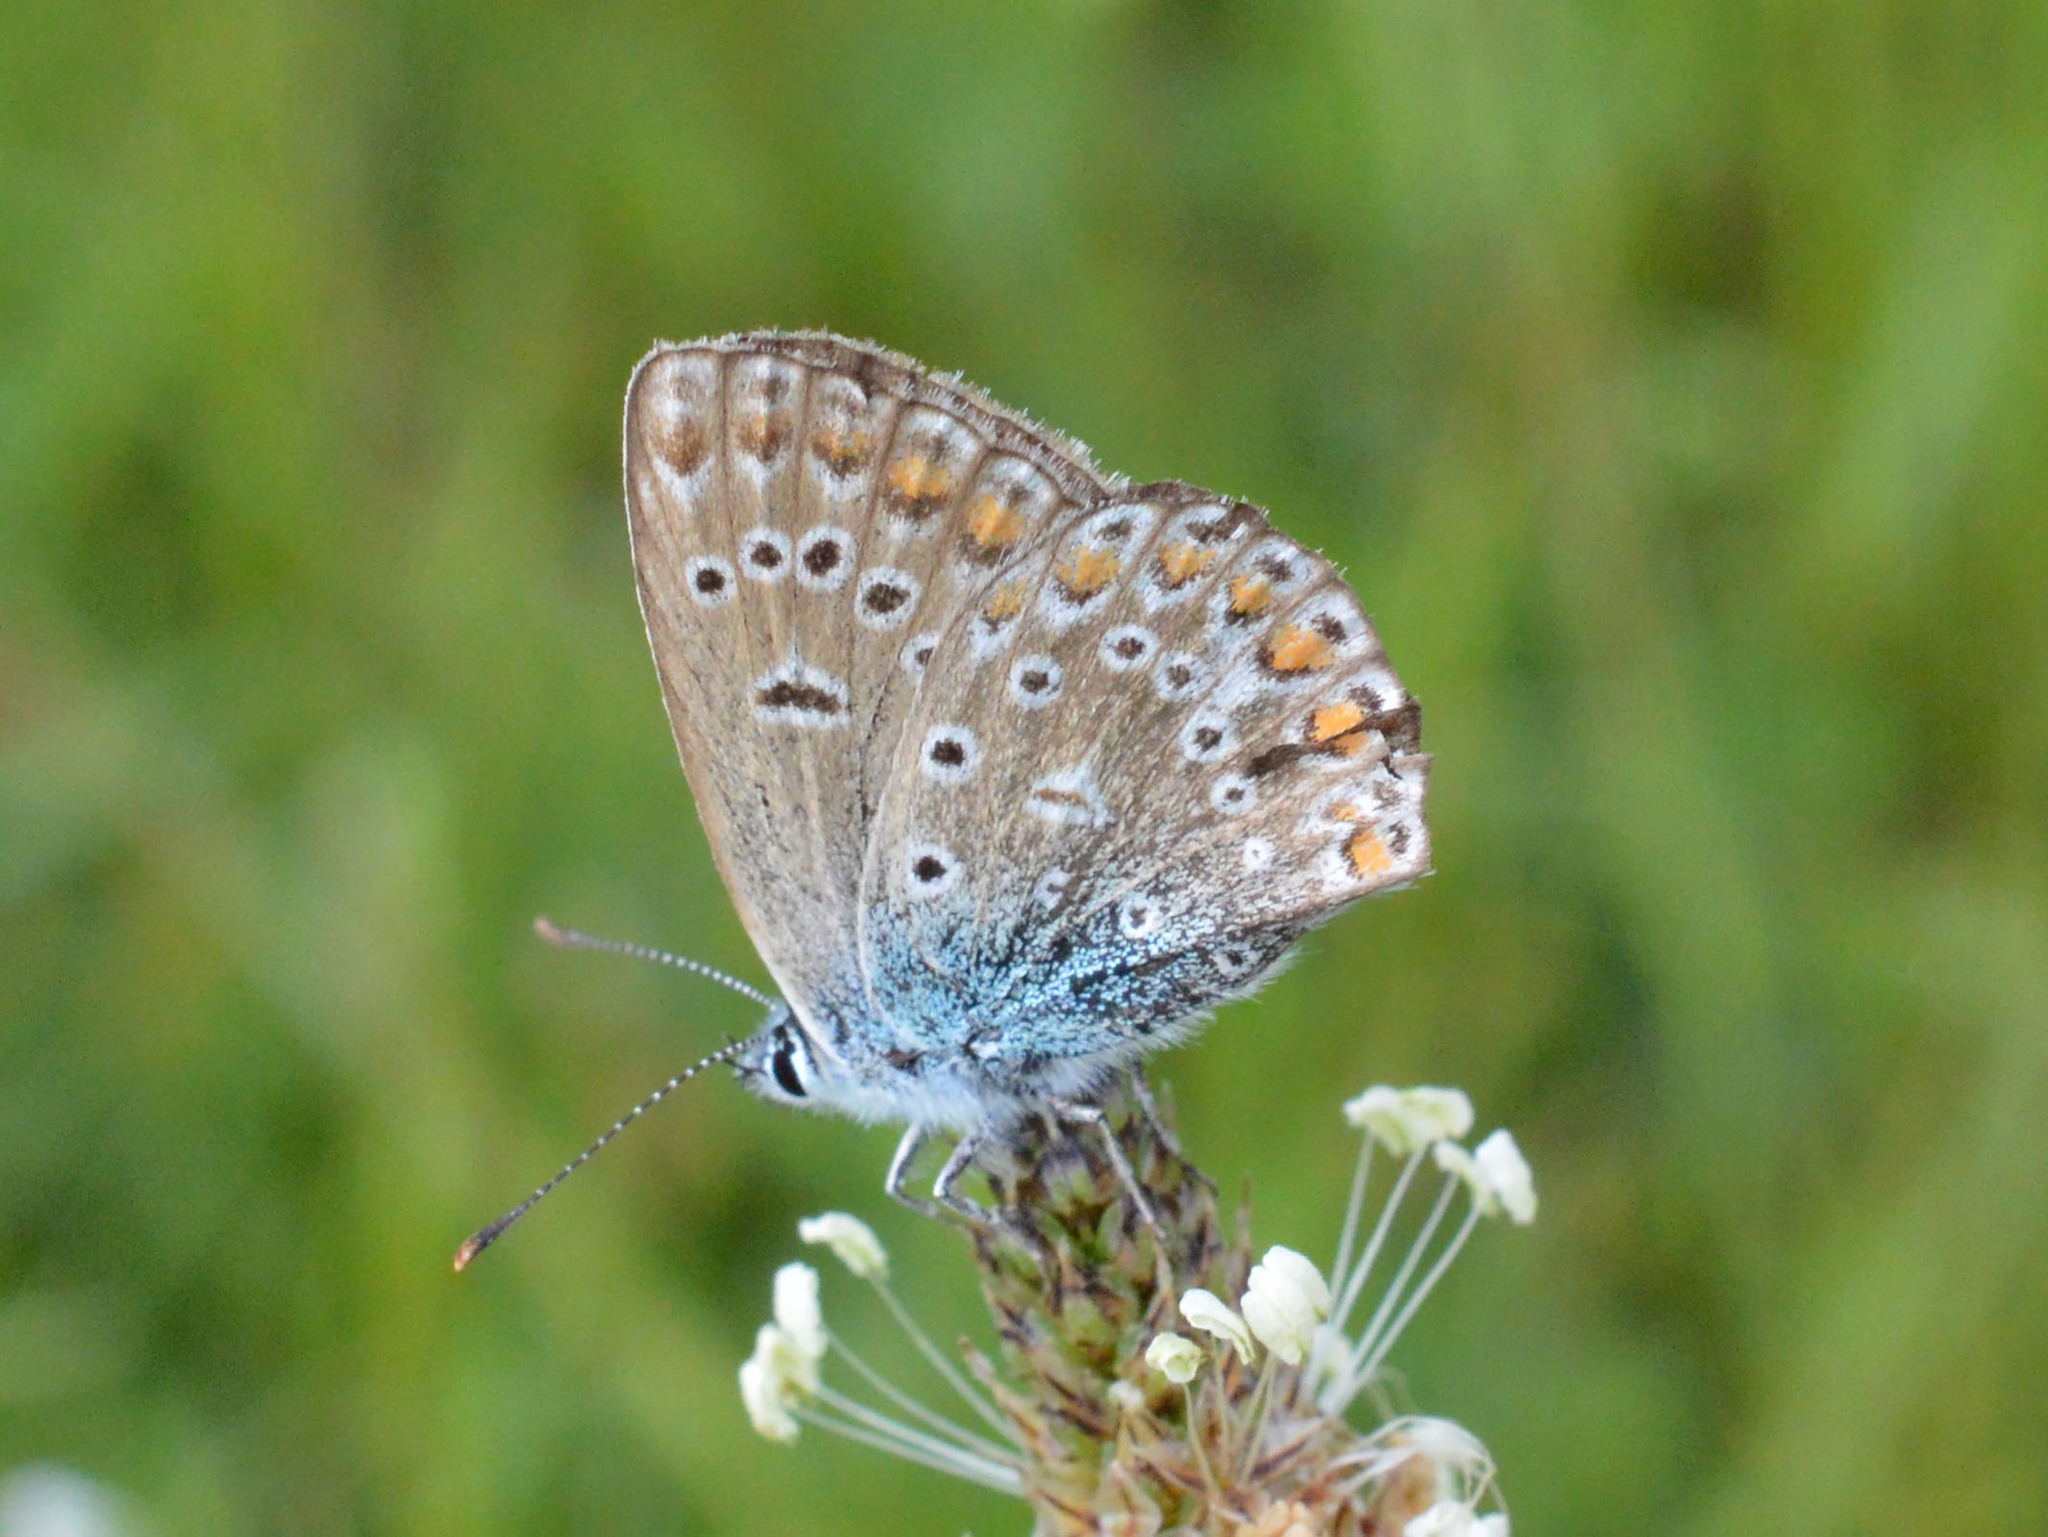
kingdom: Animalia
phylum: Arthropoda
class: Insecta
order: Lepidoptera
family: Lycaenidae
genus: Polyommatus
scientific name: Polyommatus thersites
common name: Chapman's blue
